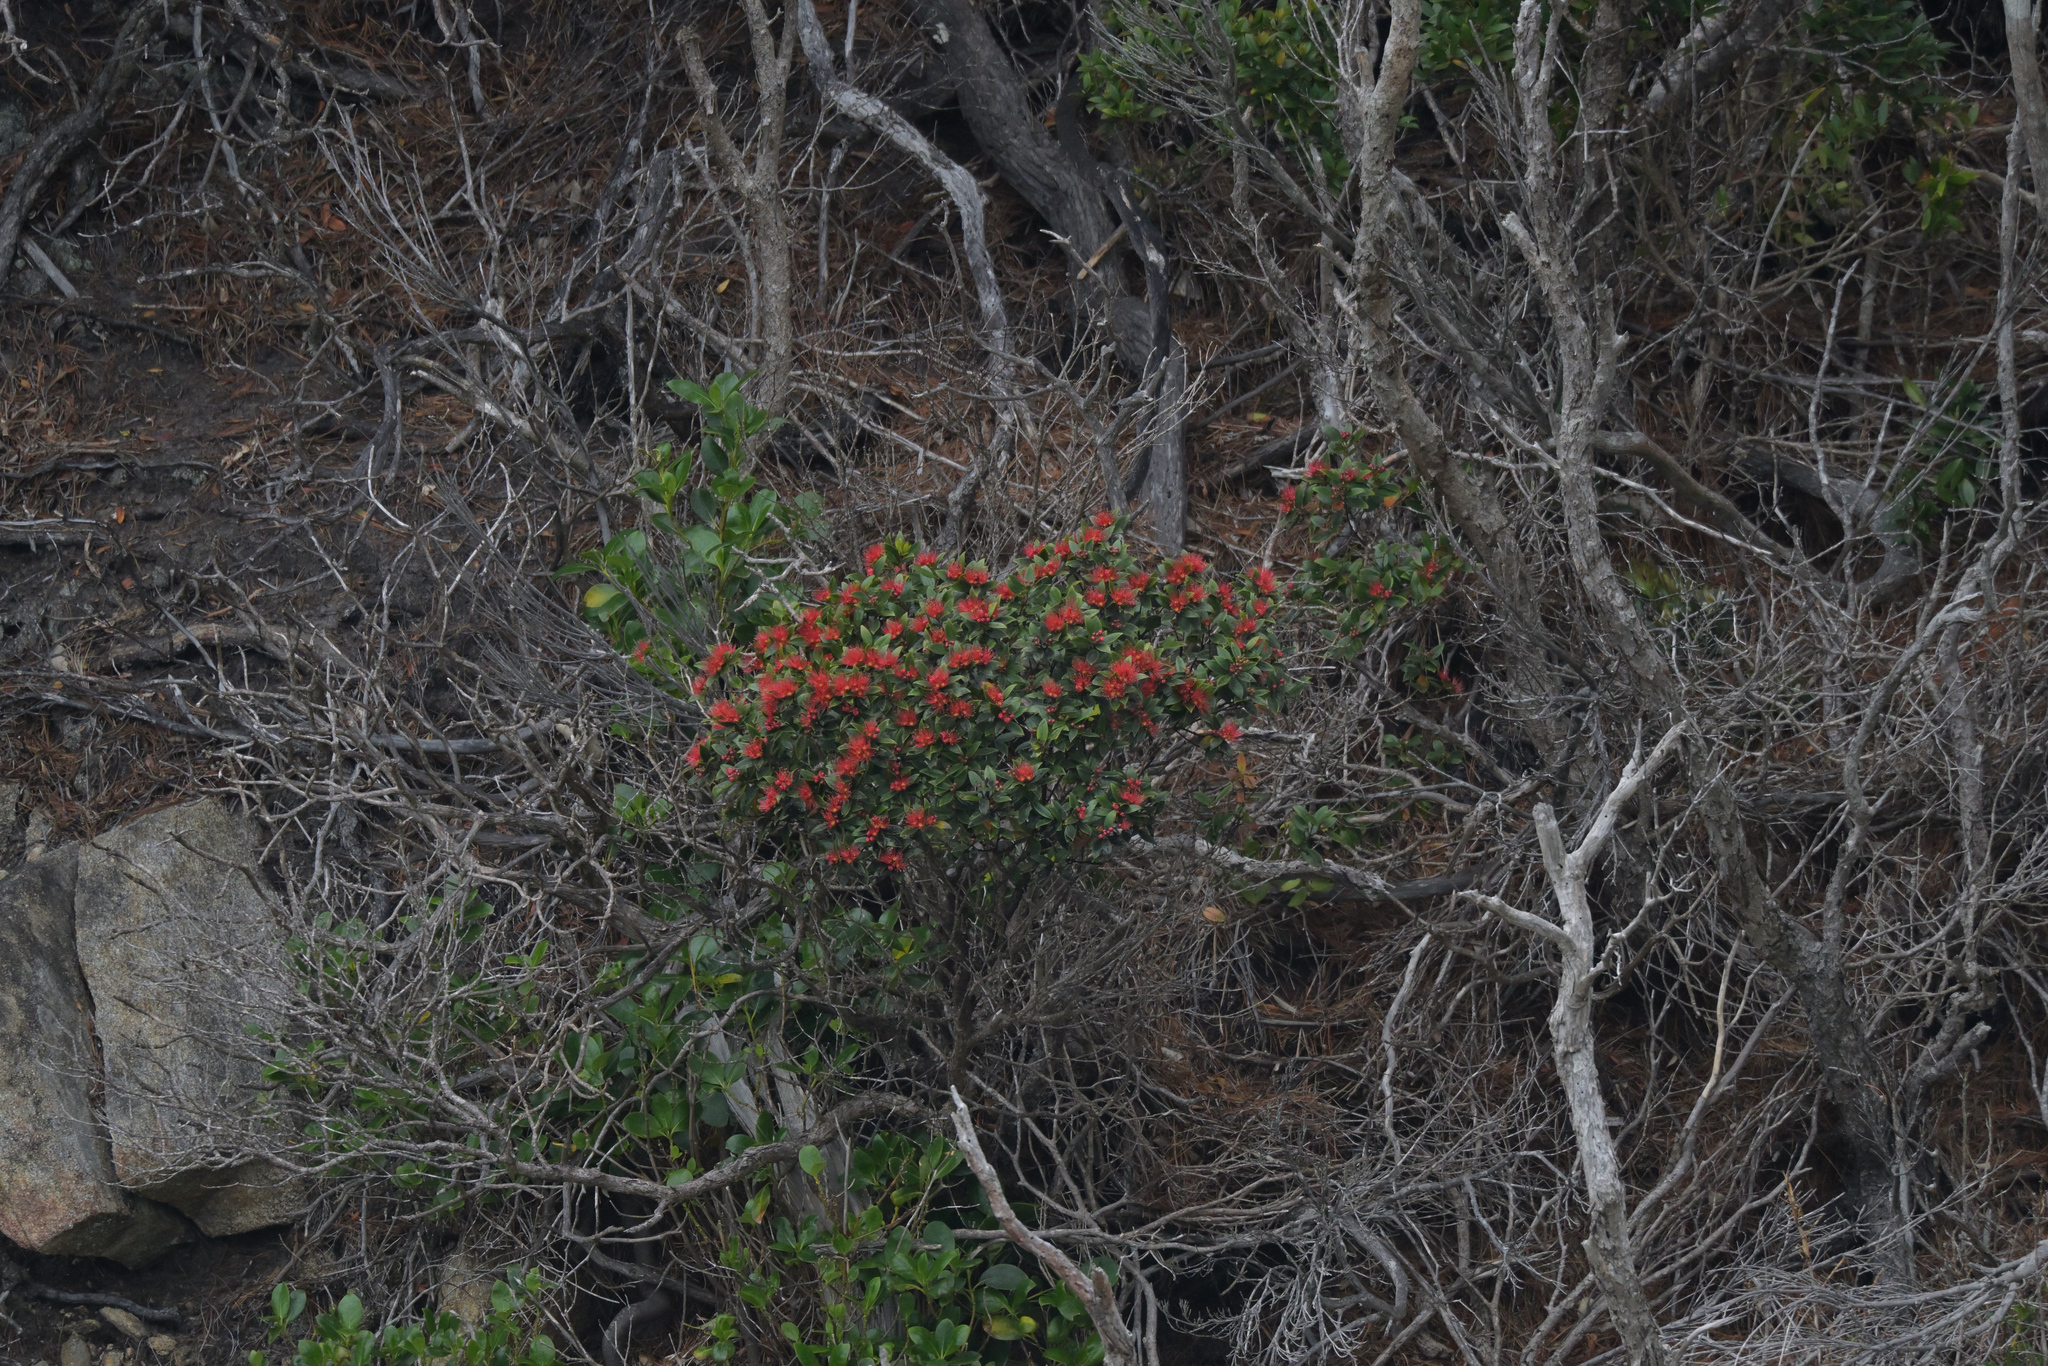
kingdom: Plantae
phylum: Tracheophyta
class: Magnoliopsida
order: Myrtales
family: Myrtaceae
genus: Metrosideros
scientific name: Metrosideros umbellata
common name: Southern rata
